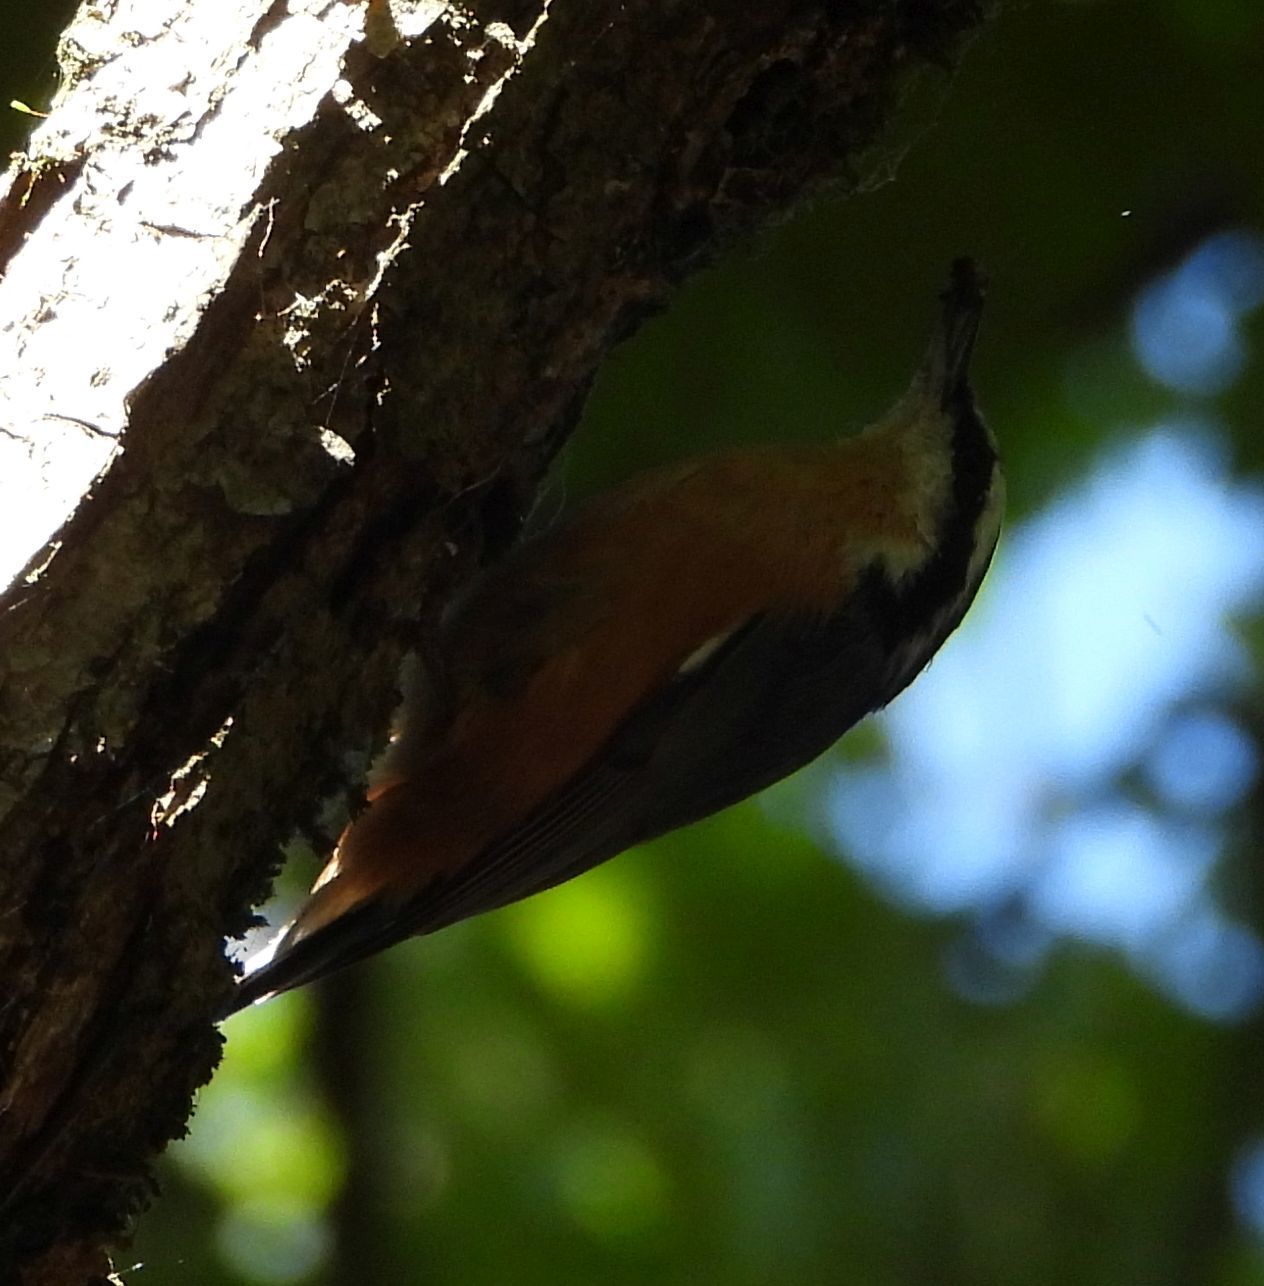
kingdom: Animalia
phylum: Chordata
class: Aves
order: Passeriformes
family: Sittidae
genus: Sitta
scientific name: Sitta canadensis
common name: Red-breasted nuthatch
